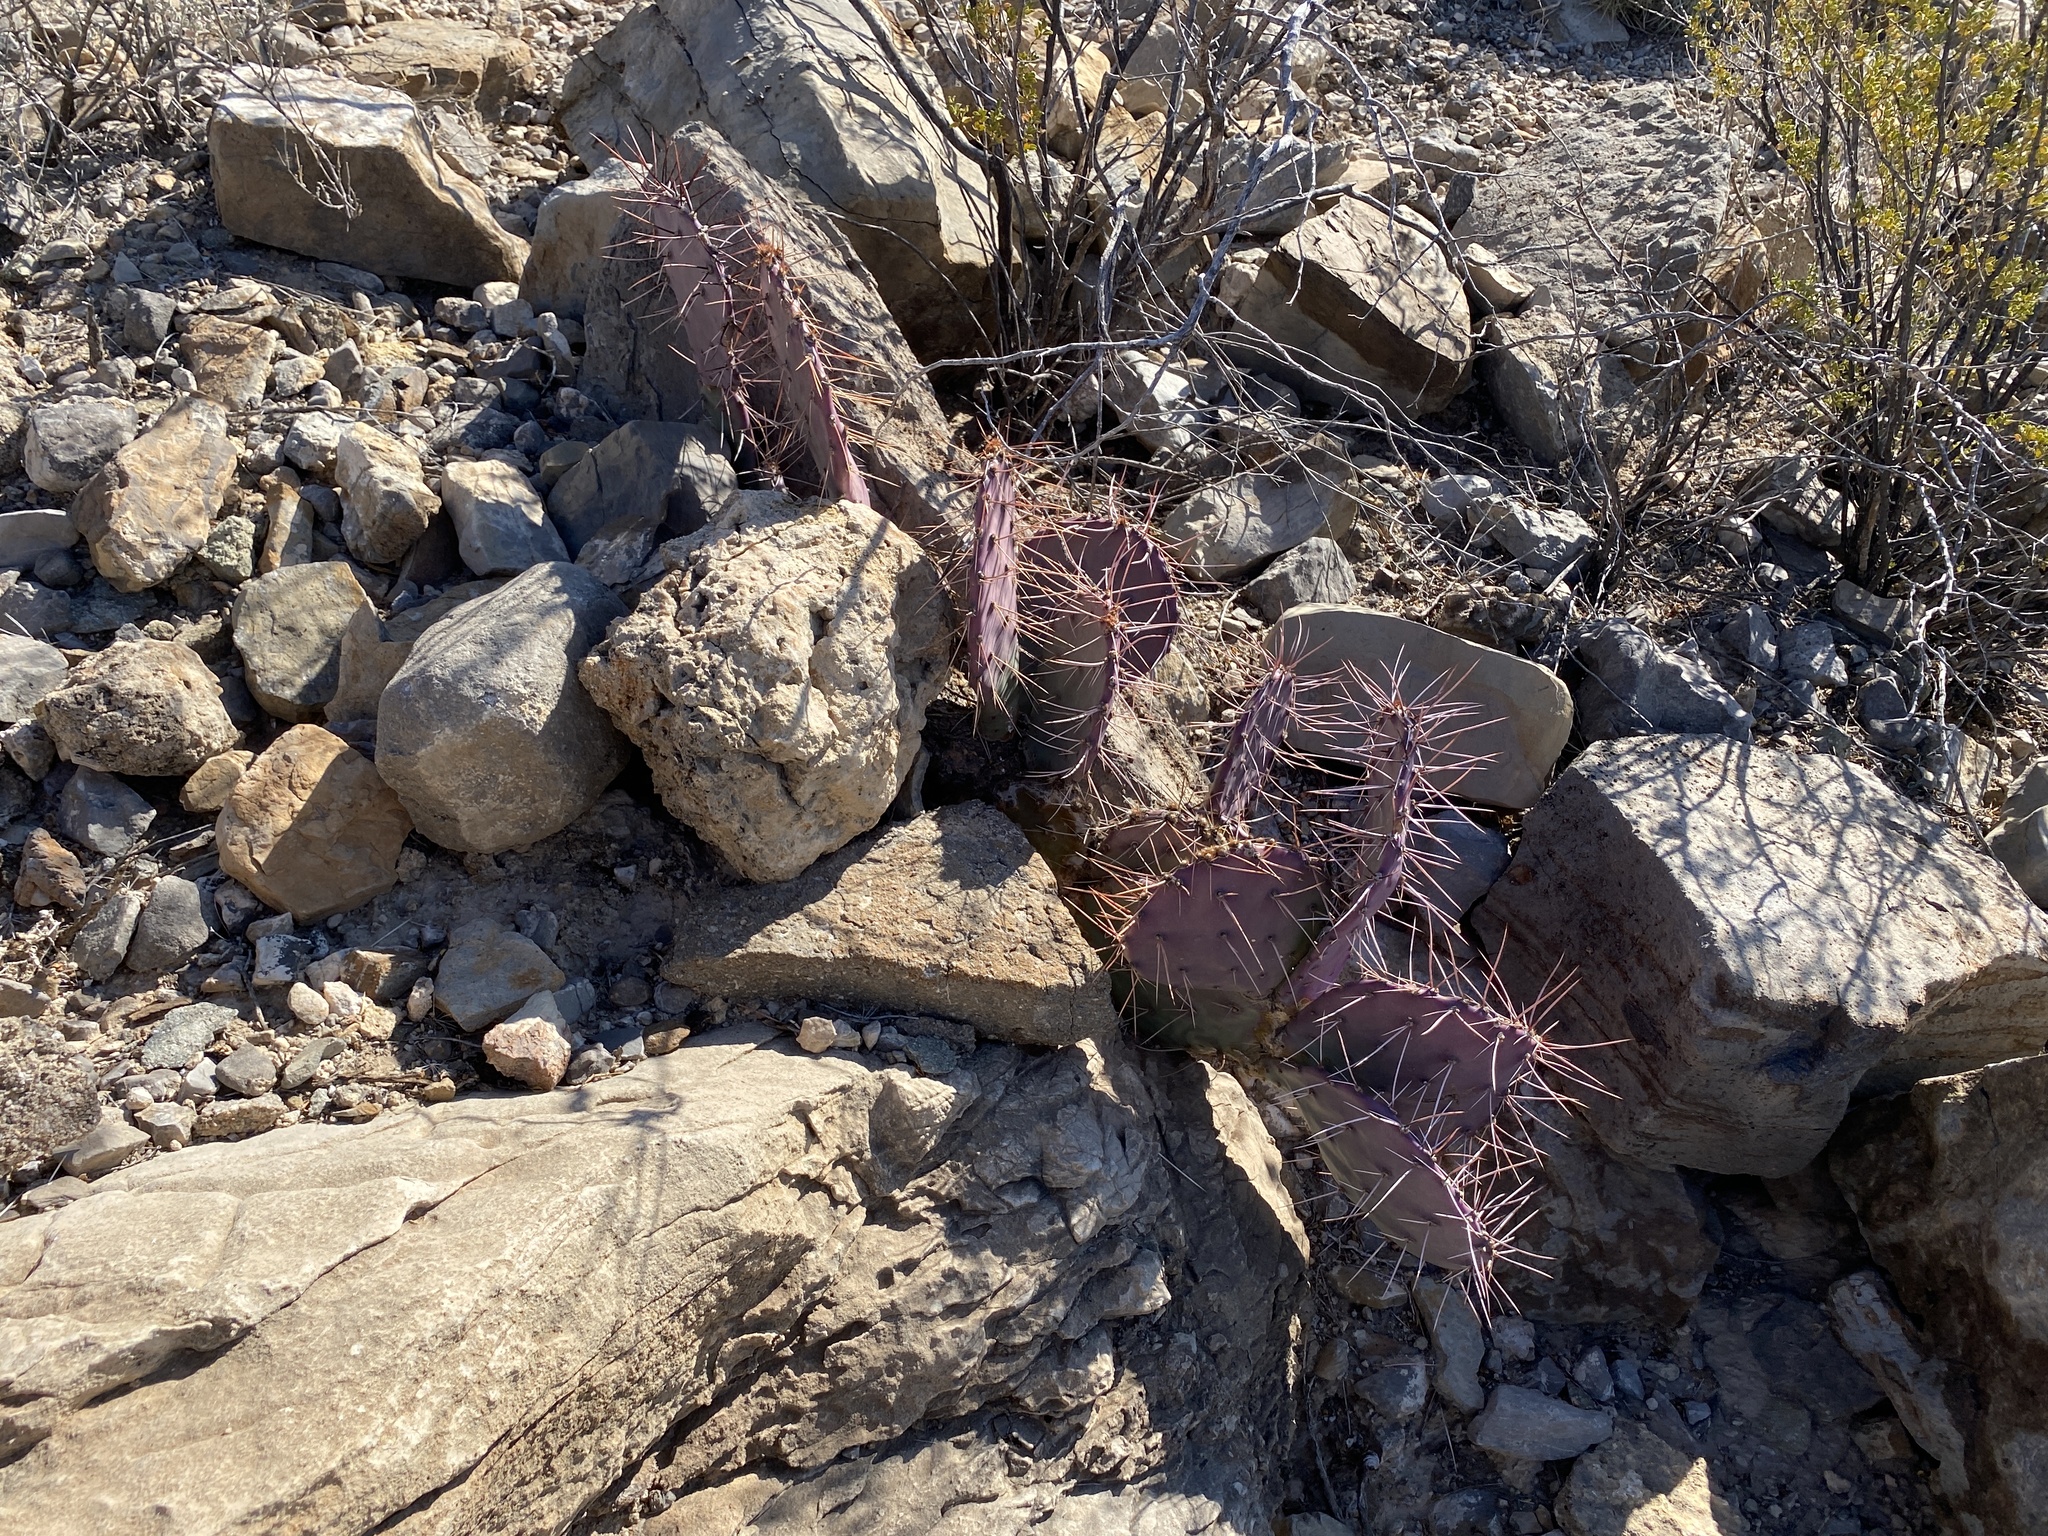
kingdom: Plantae
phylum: Tracheophyta
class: Magnoliopsida
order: Caryophyllales
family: Cactaceae
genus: Opuntia
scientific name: Opuntia macrocentra
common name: Purple prickly-pear
